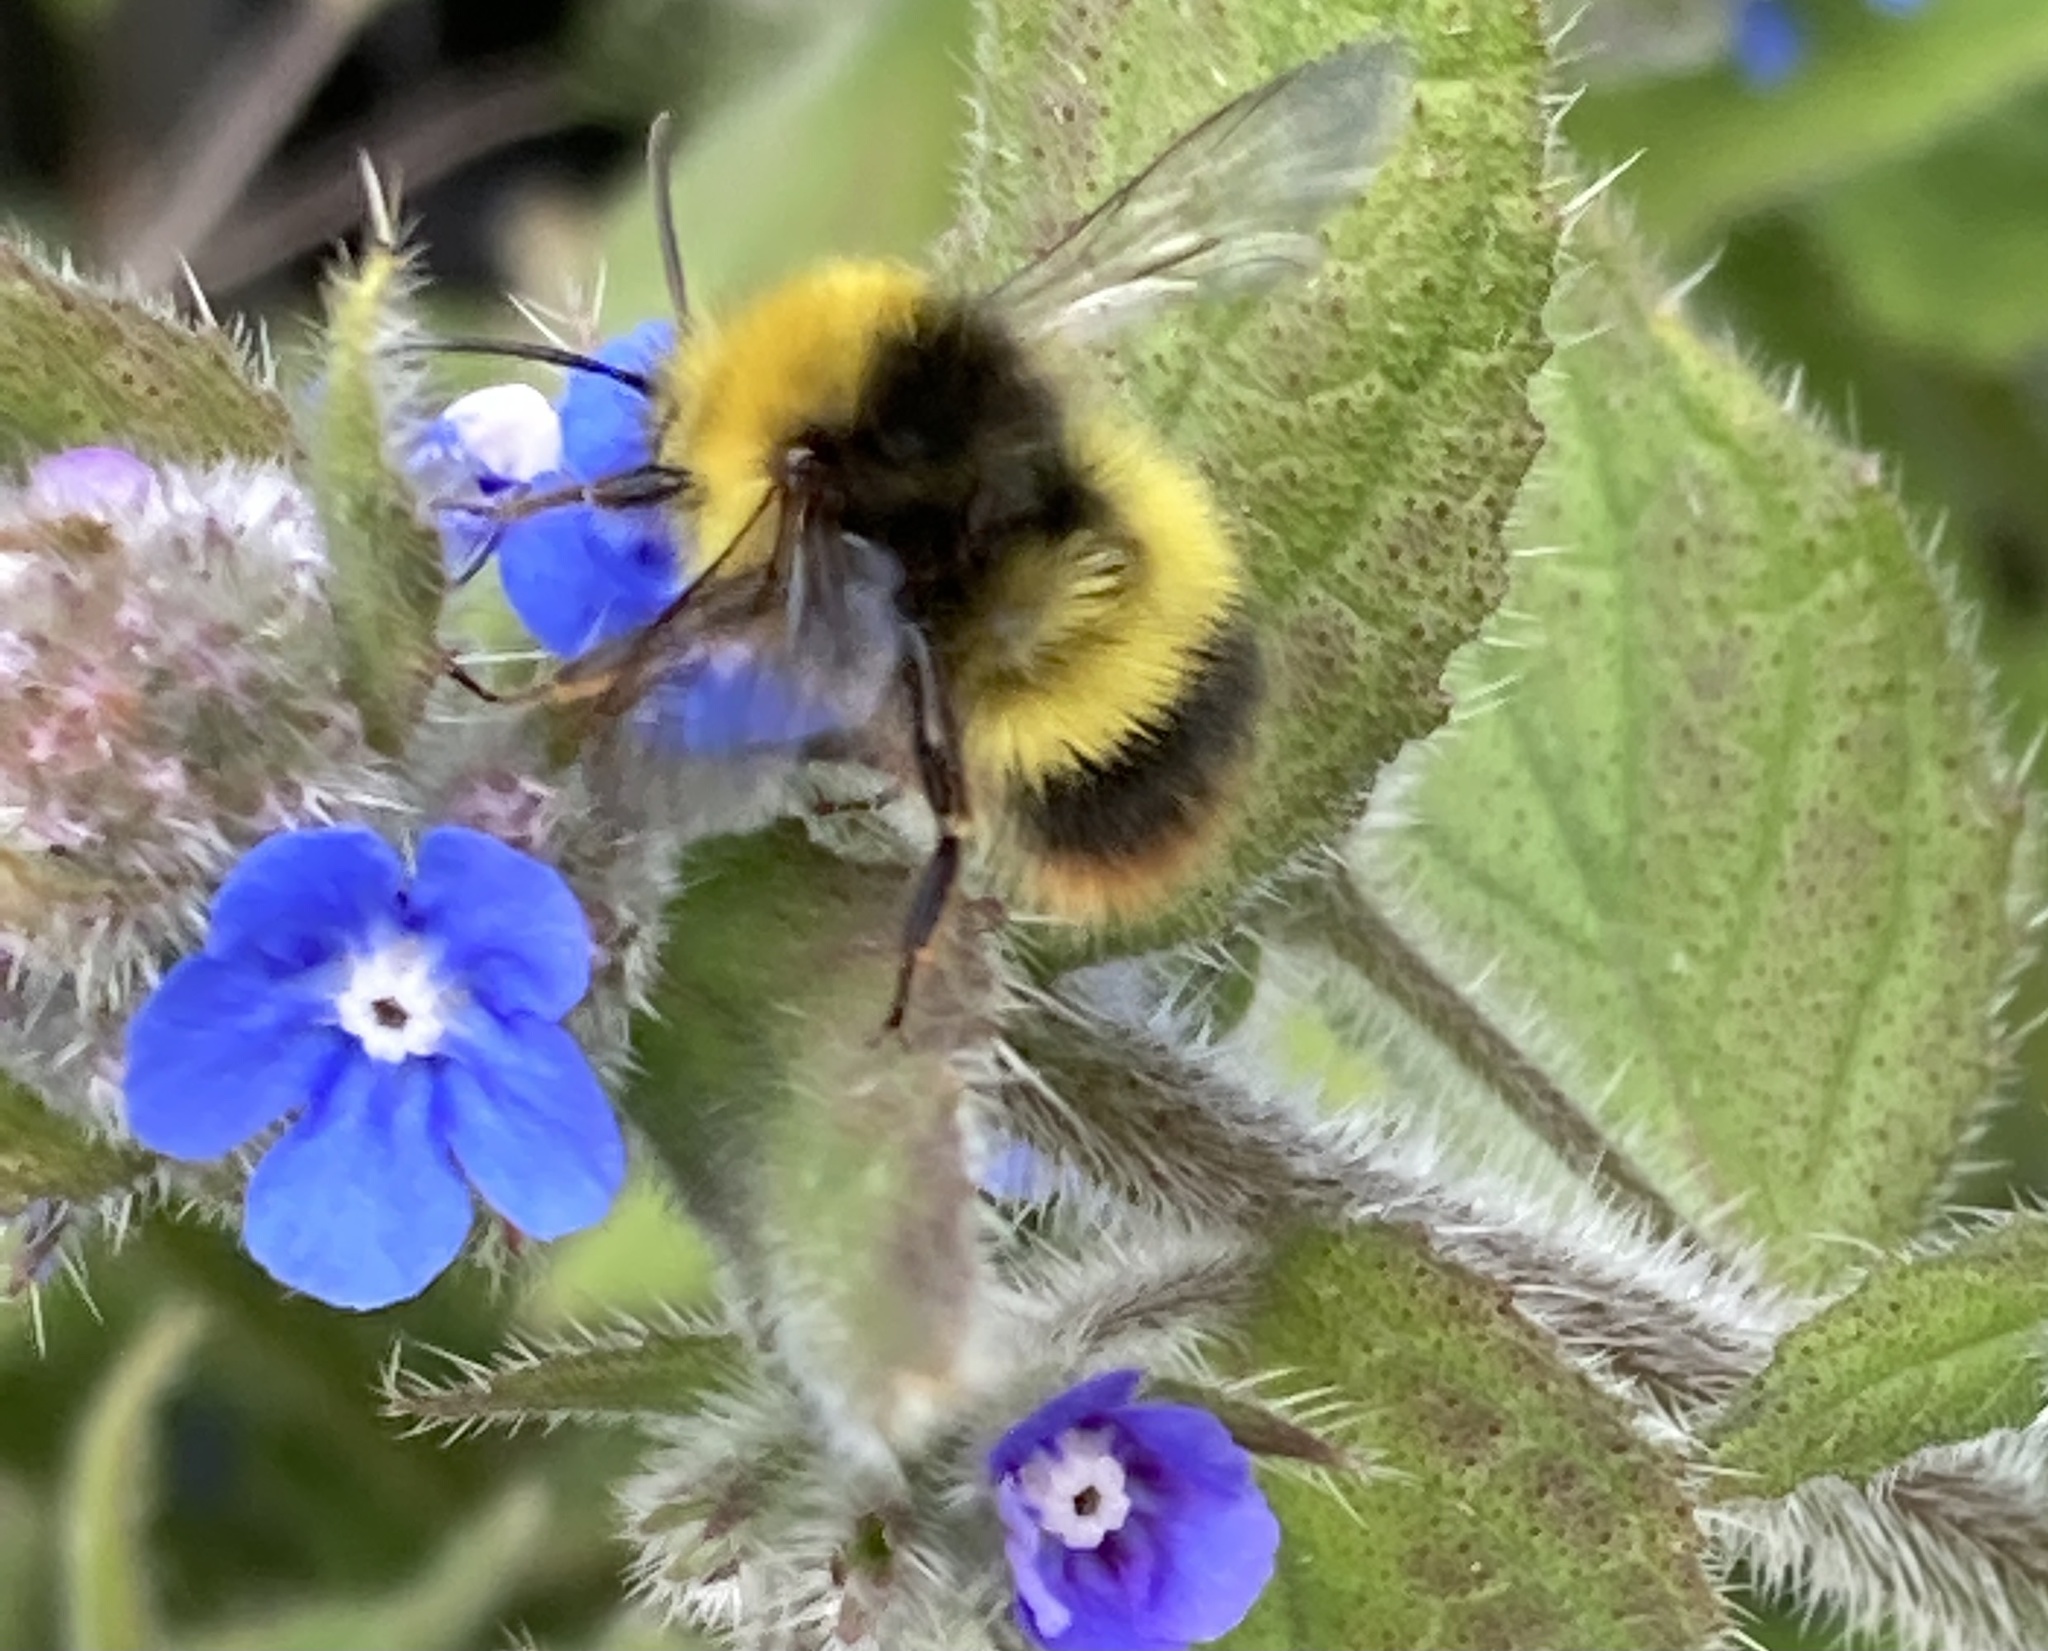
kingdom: Animalia
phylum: Arthropoda
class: Insecta
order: Hymenoptera
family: Apidae
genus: Bombus
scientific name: Bombus pratorum
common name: Early humble-bee
